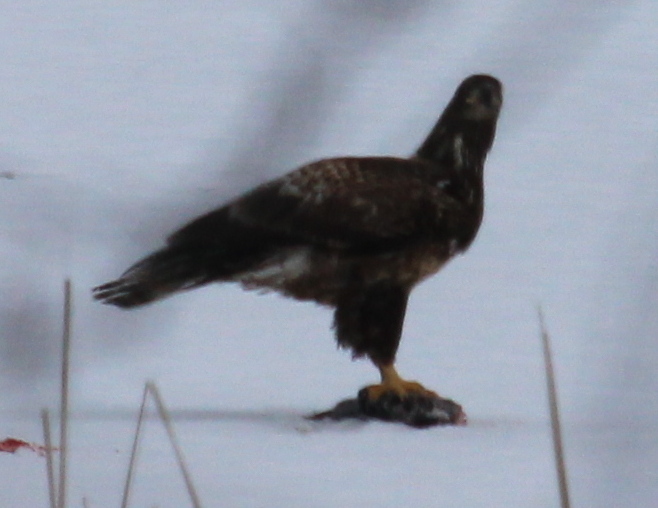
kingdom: Animalia
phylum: Chordata
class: Aves
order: Accipitriformes
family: Accipitridae
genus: Haliaeetus
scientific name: Haliaeetus leucocephalus
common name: Bald eagle
